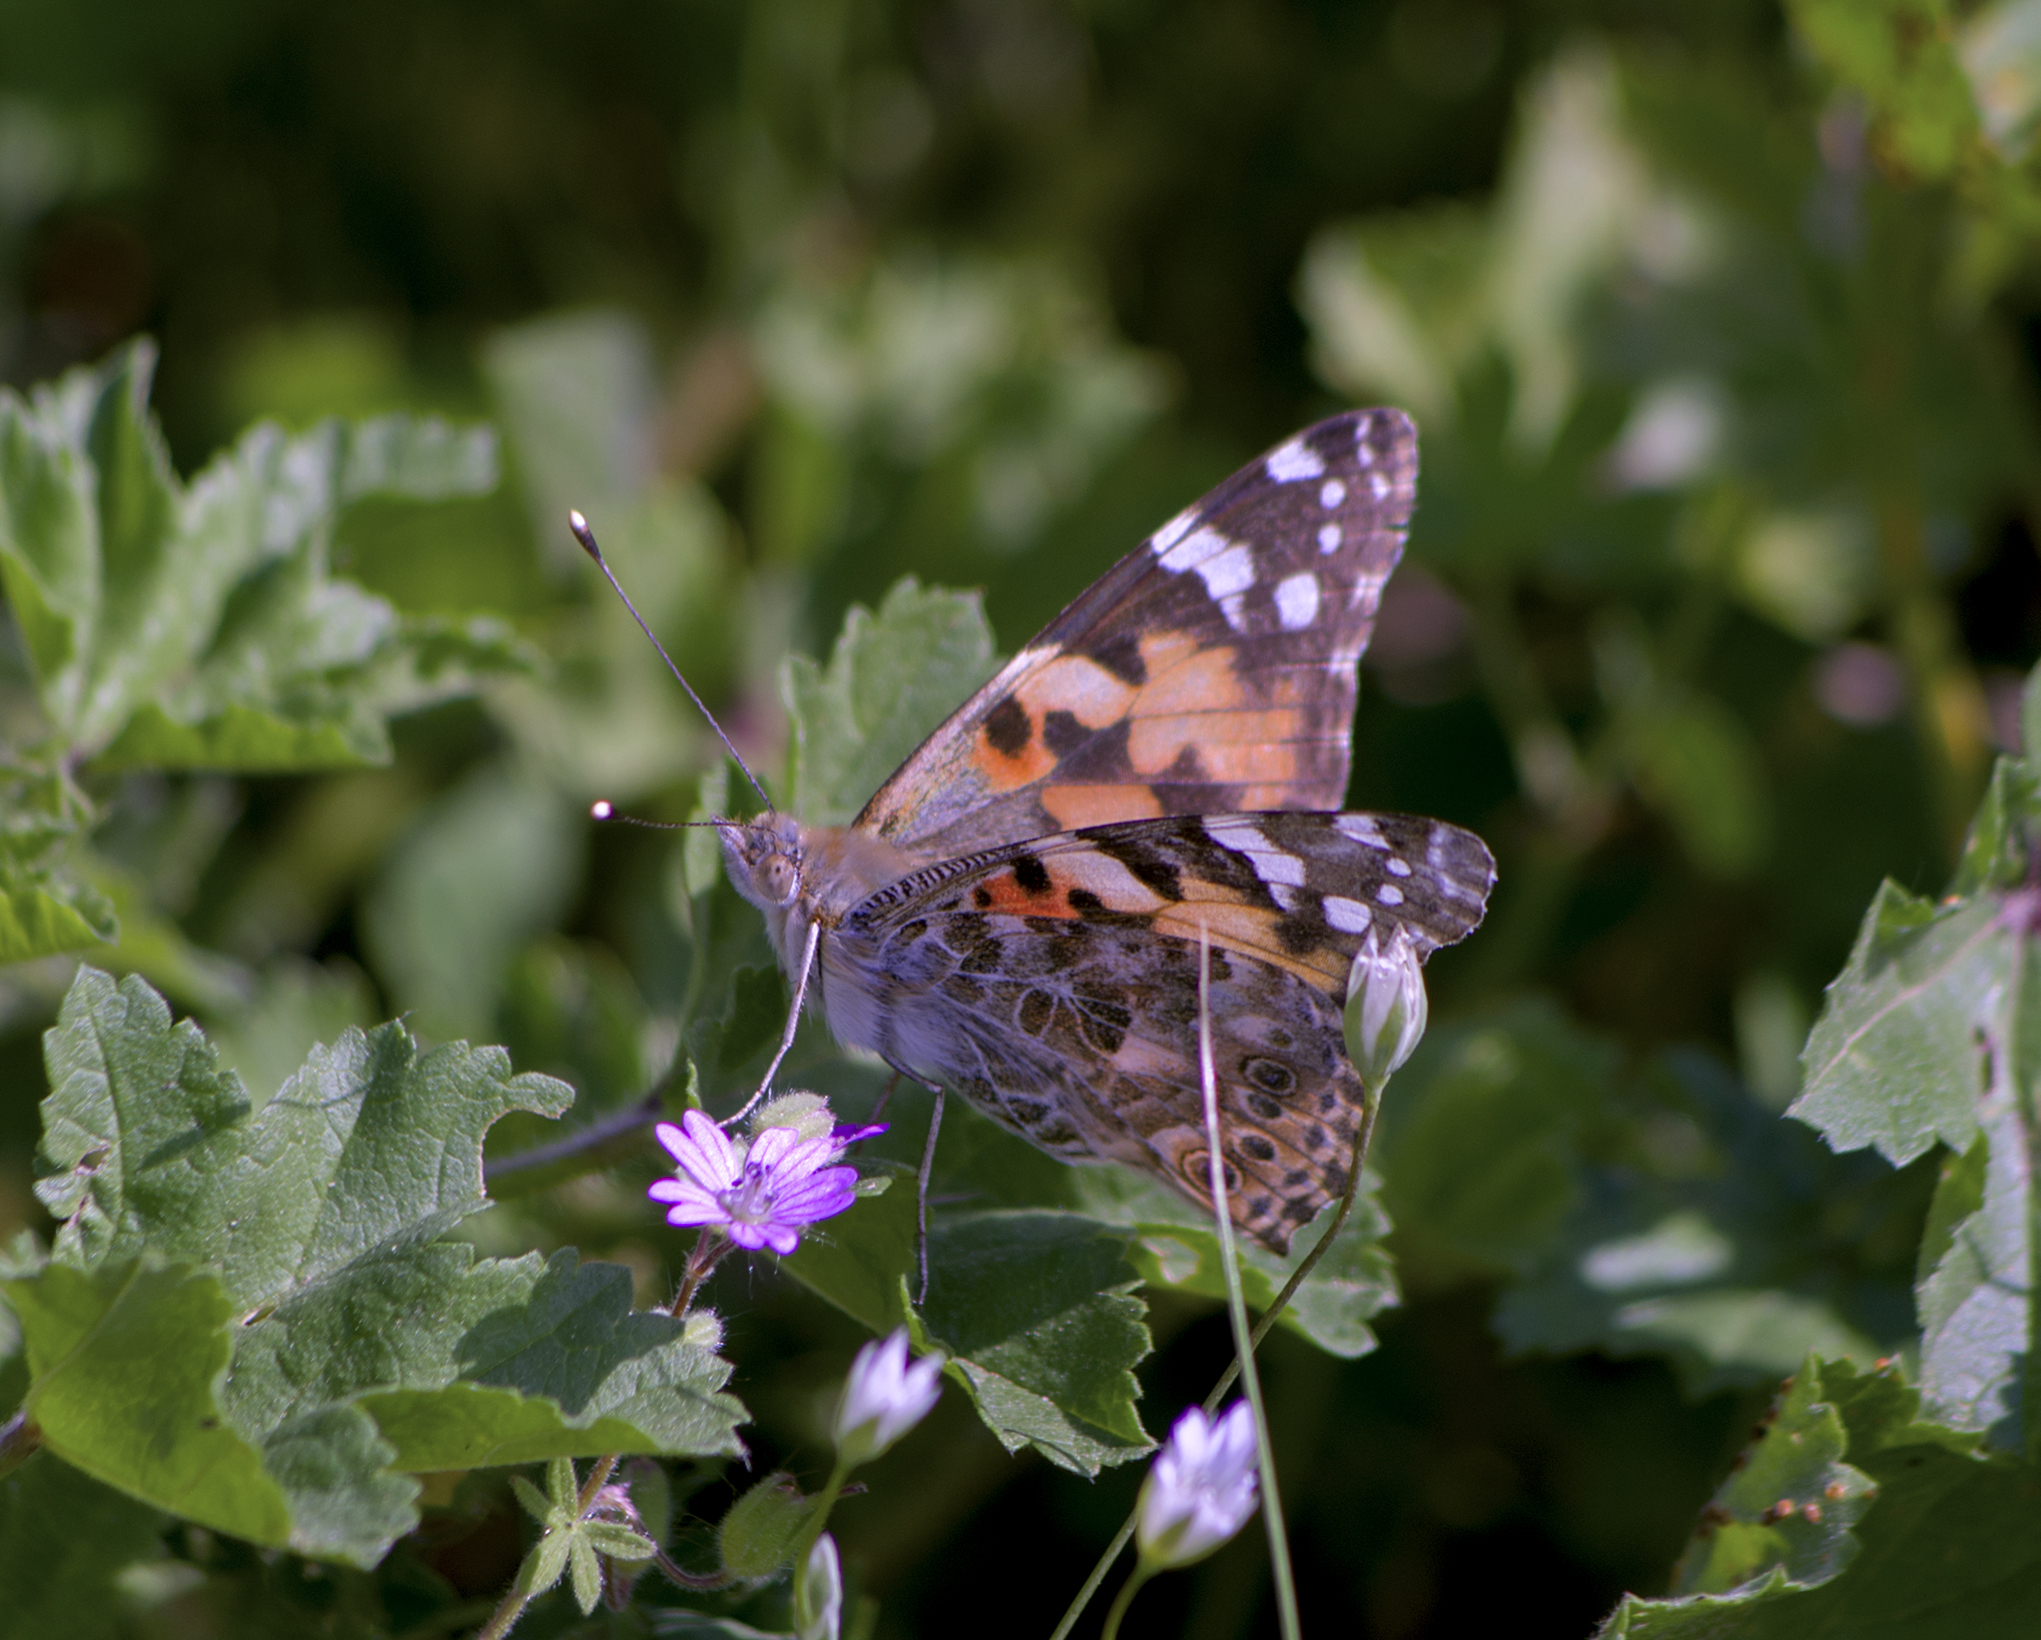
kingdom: Animalia
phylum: Arthropoda
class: Insecta
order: Lepidoptera
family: Nymphalidae
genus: Vanessa
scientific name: Vanessa cardui
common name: Painted lady
